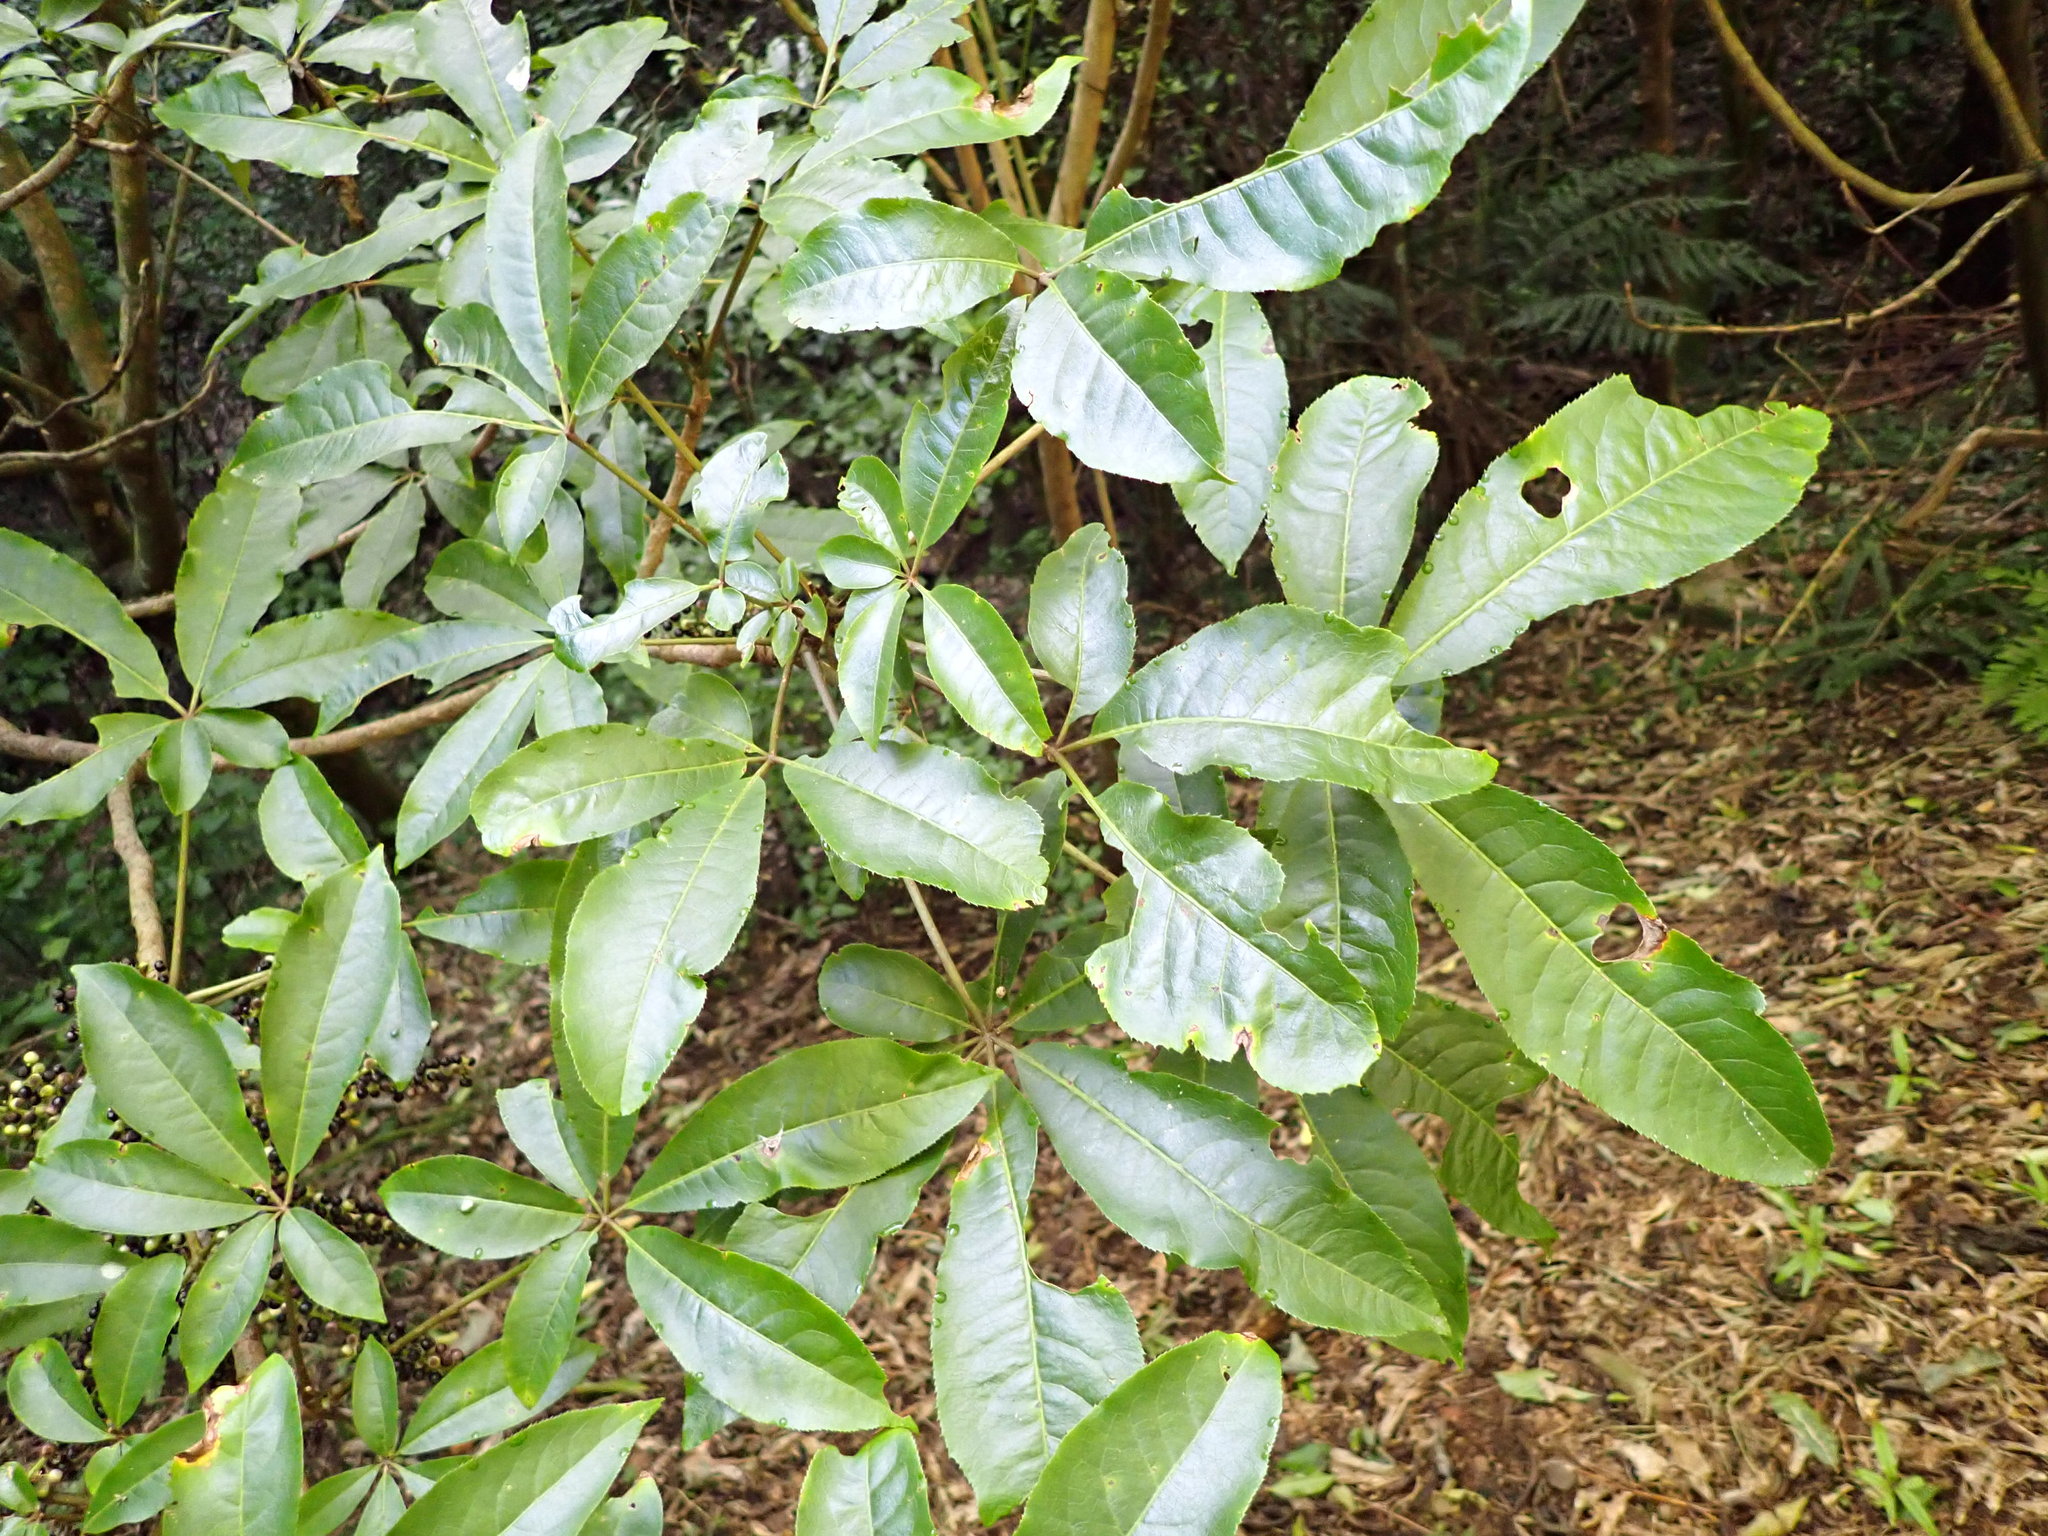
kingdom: Plantae
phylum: Tracheophyta
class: Magnoliopsida
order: Apiales
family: Araliaceae
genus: Schefflera
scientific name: Schefflera digitata
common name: Pate
